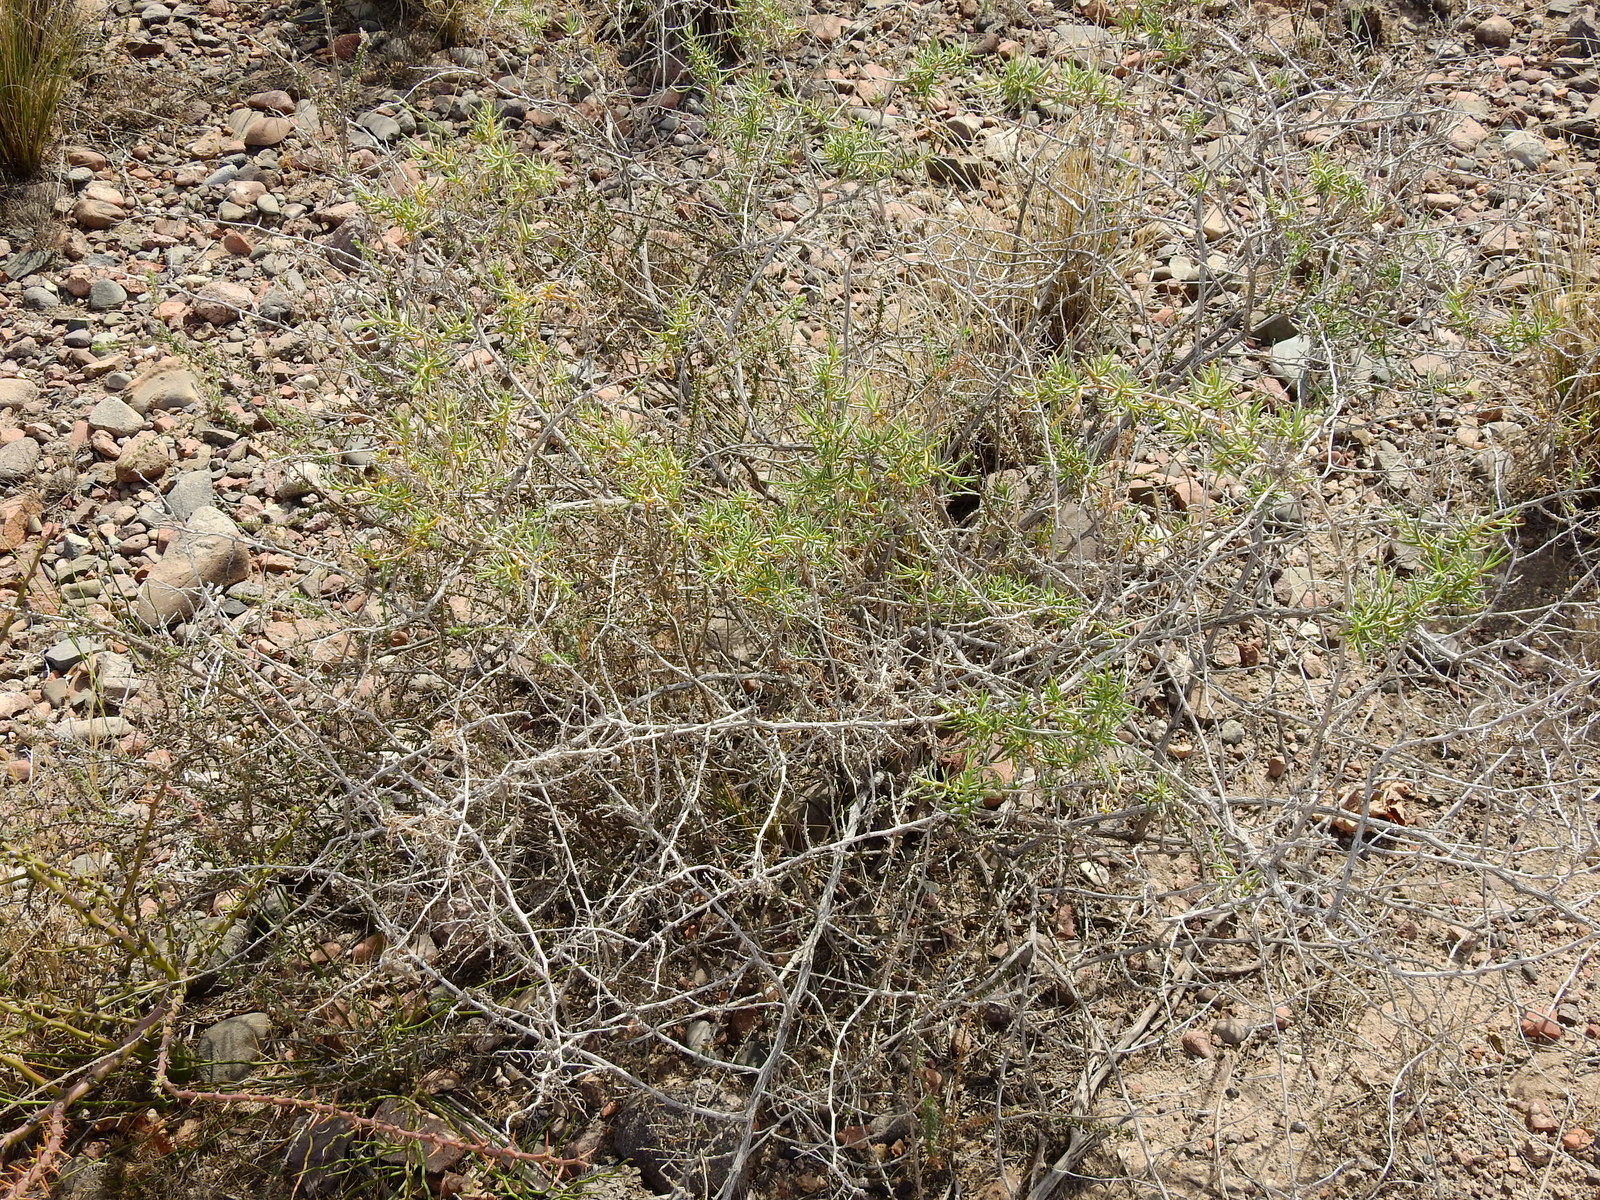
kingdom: Plantae
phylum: Tracheophyta
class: Magnoliopsida
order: Asterales
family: Asteraceae
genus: Senecio
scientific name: Senecio subulatus
